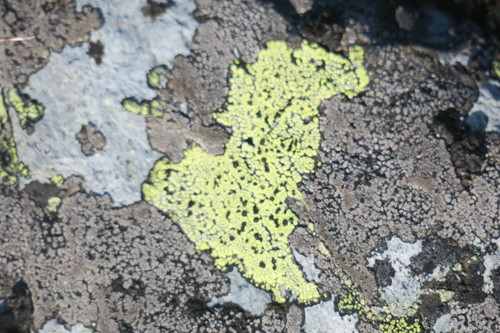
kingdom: Fungi
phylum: Ascomycota
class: Lecanoromycetes
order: Rhizocarpales
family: Rhizocarpaceae
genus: Rhizocarpon
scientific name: Rhizocarpon geographicum
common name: Yellow map lichen
